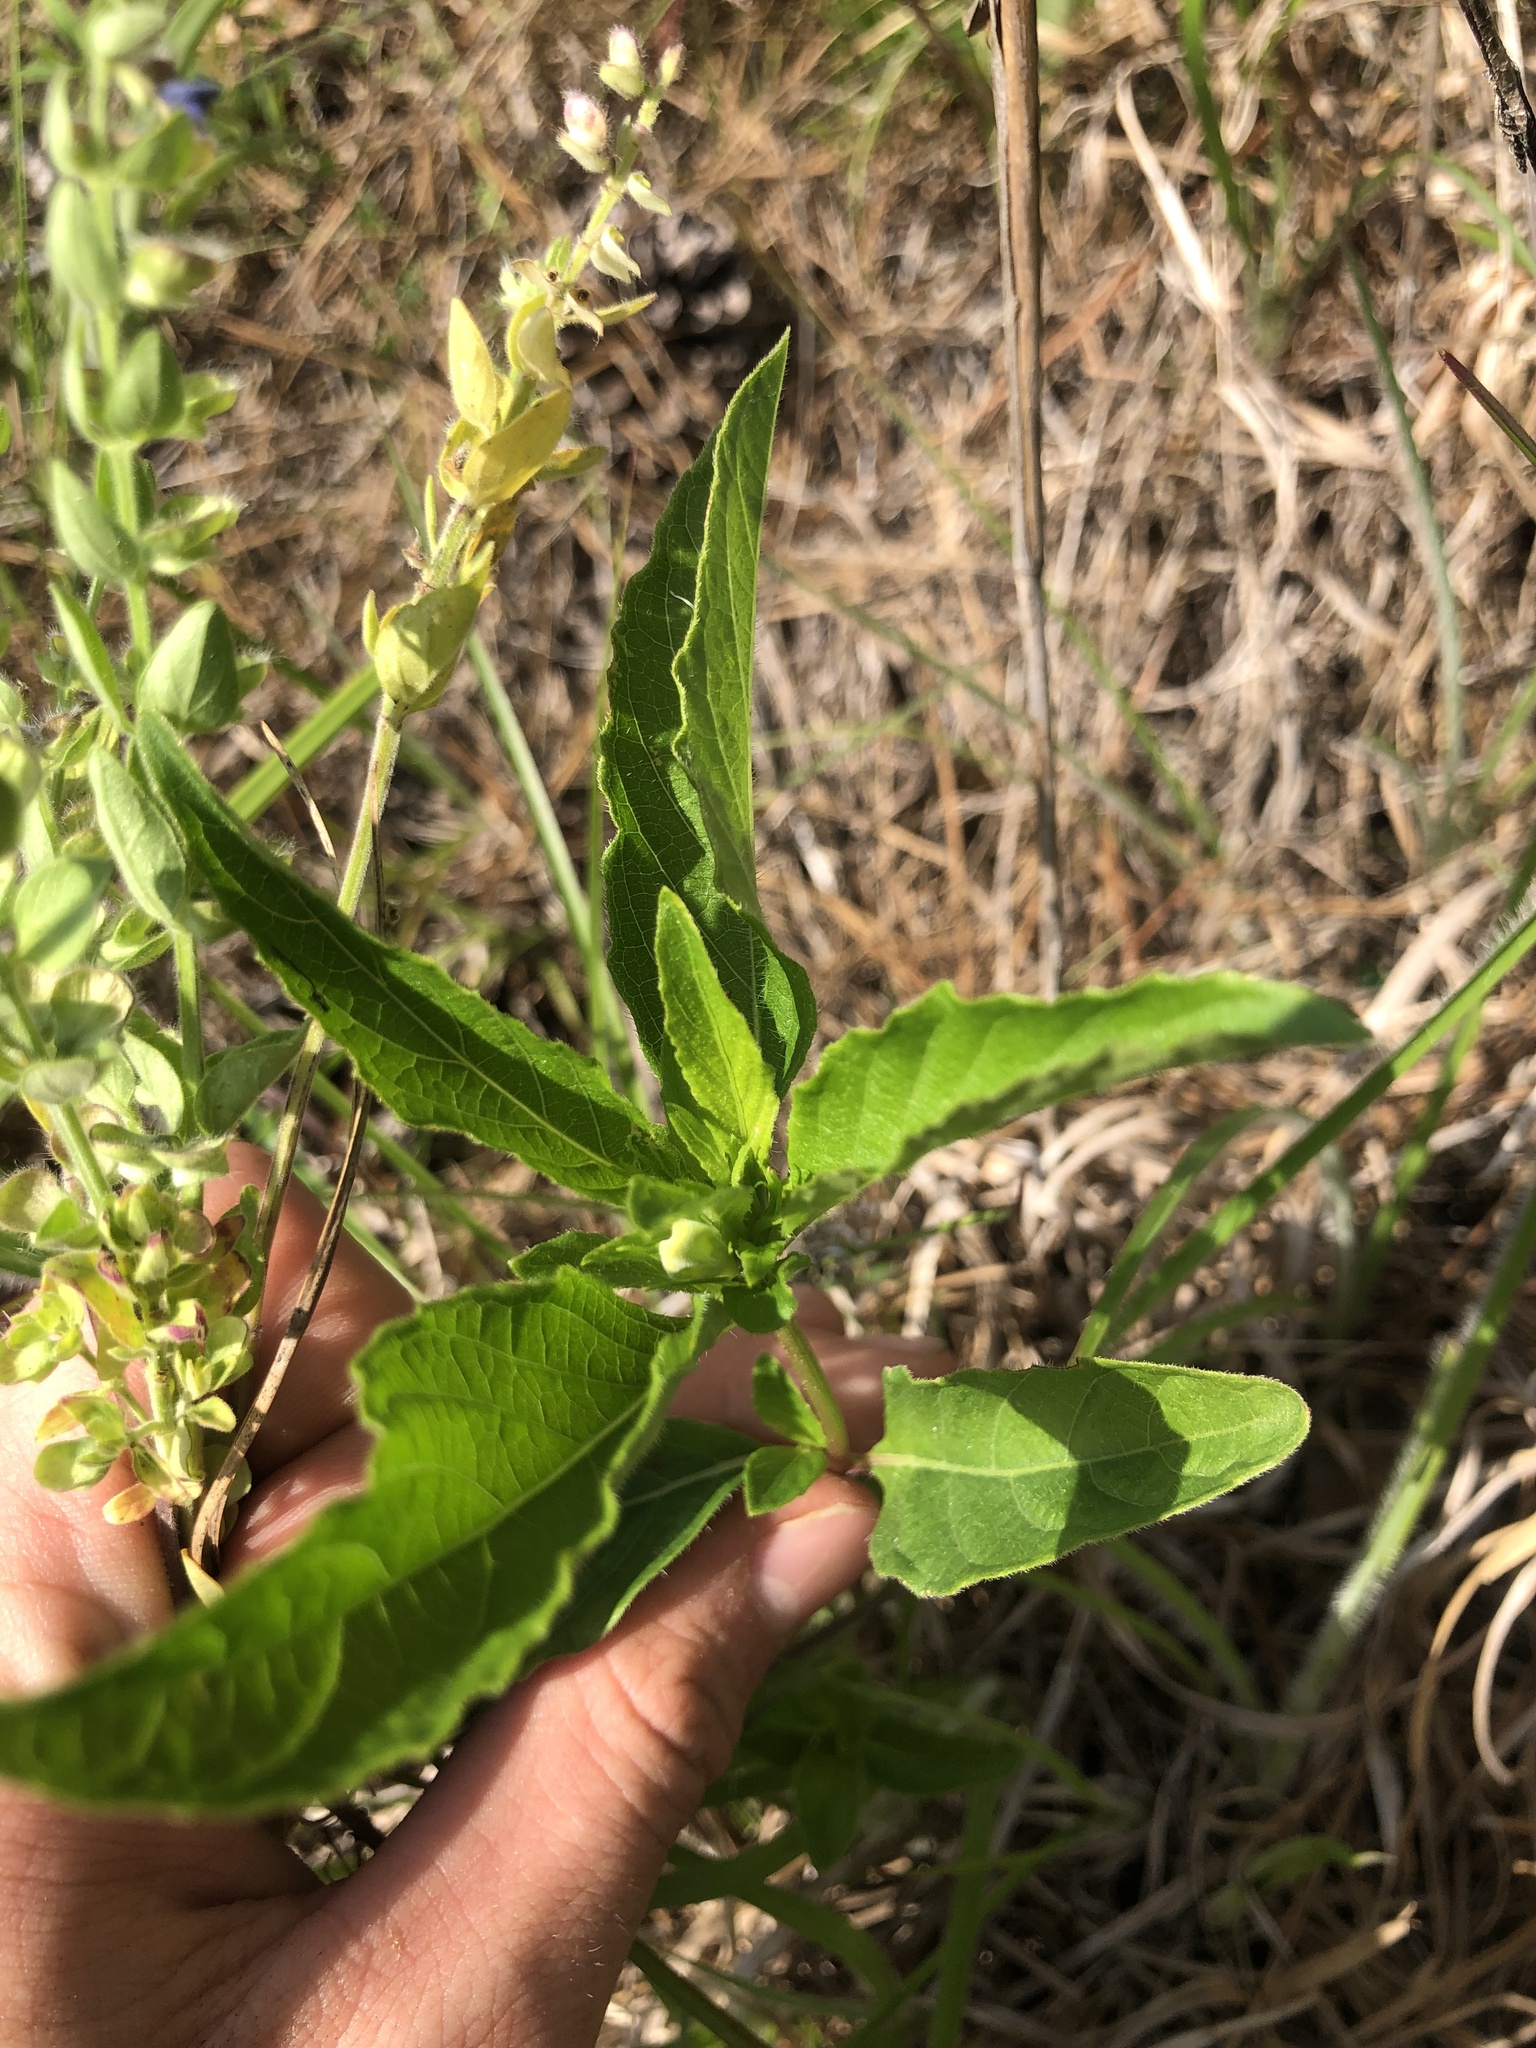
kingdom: Plantae
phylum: Tracheophyta
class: Magnoliopsida
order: Lamiales
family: Acanthaceae
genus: Ruellia
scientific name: Ruellia caroliniensis
